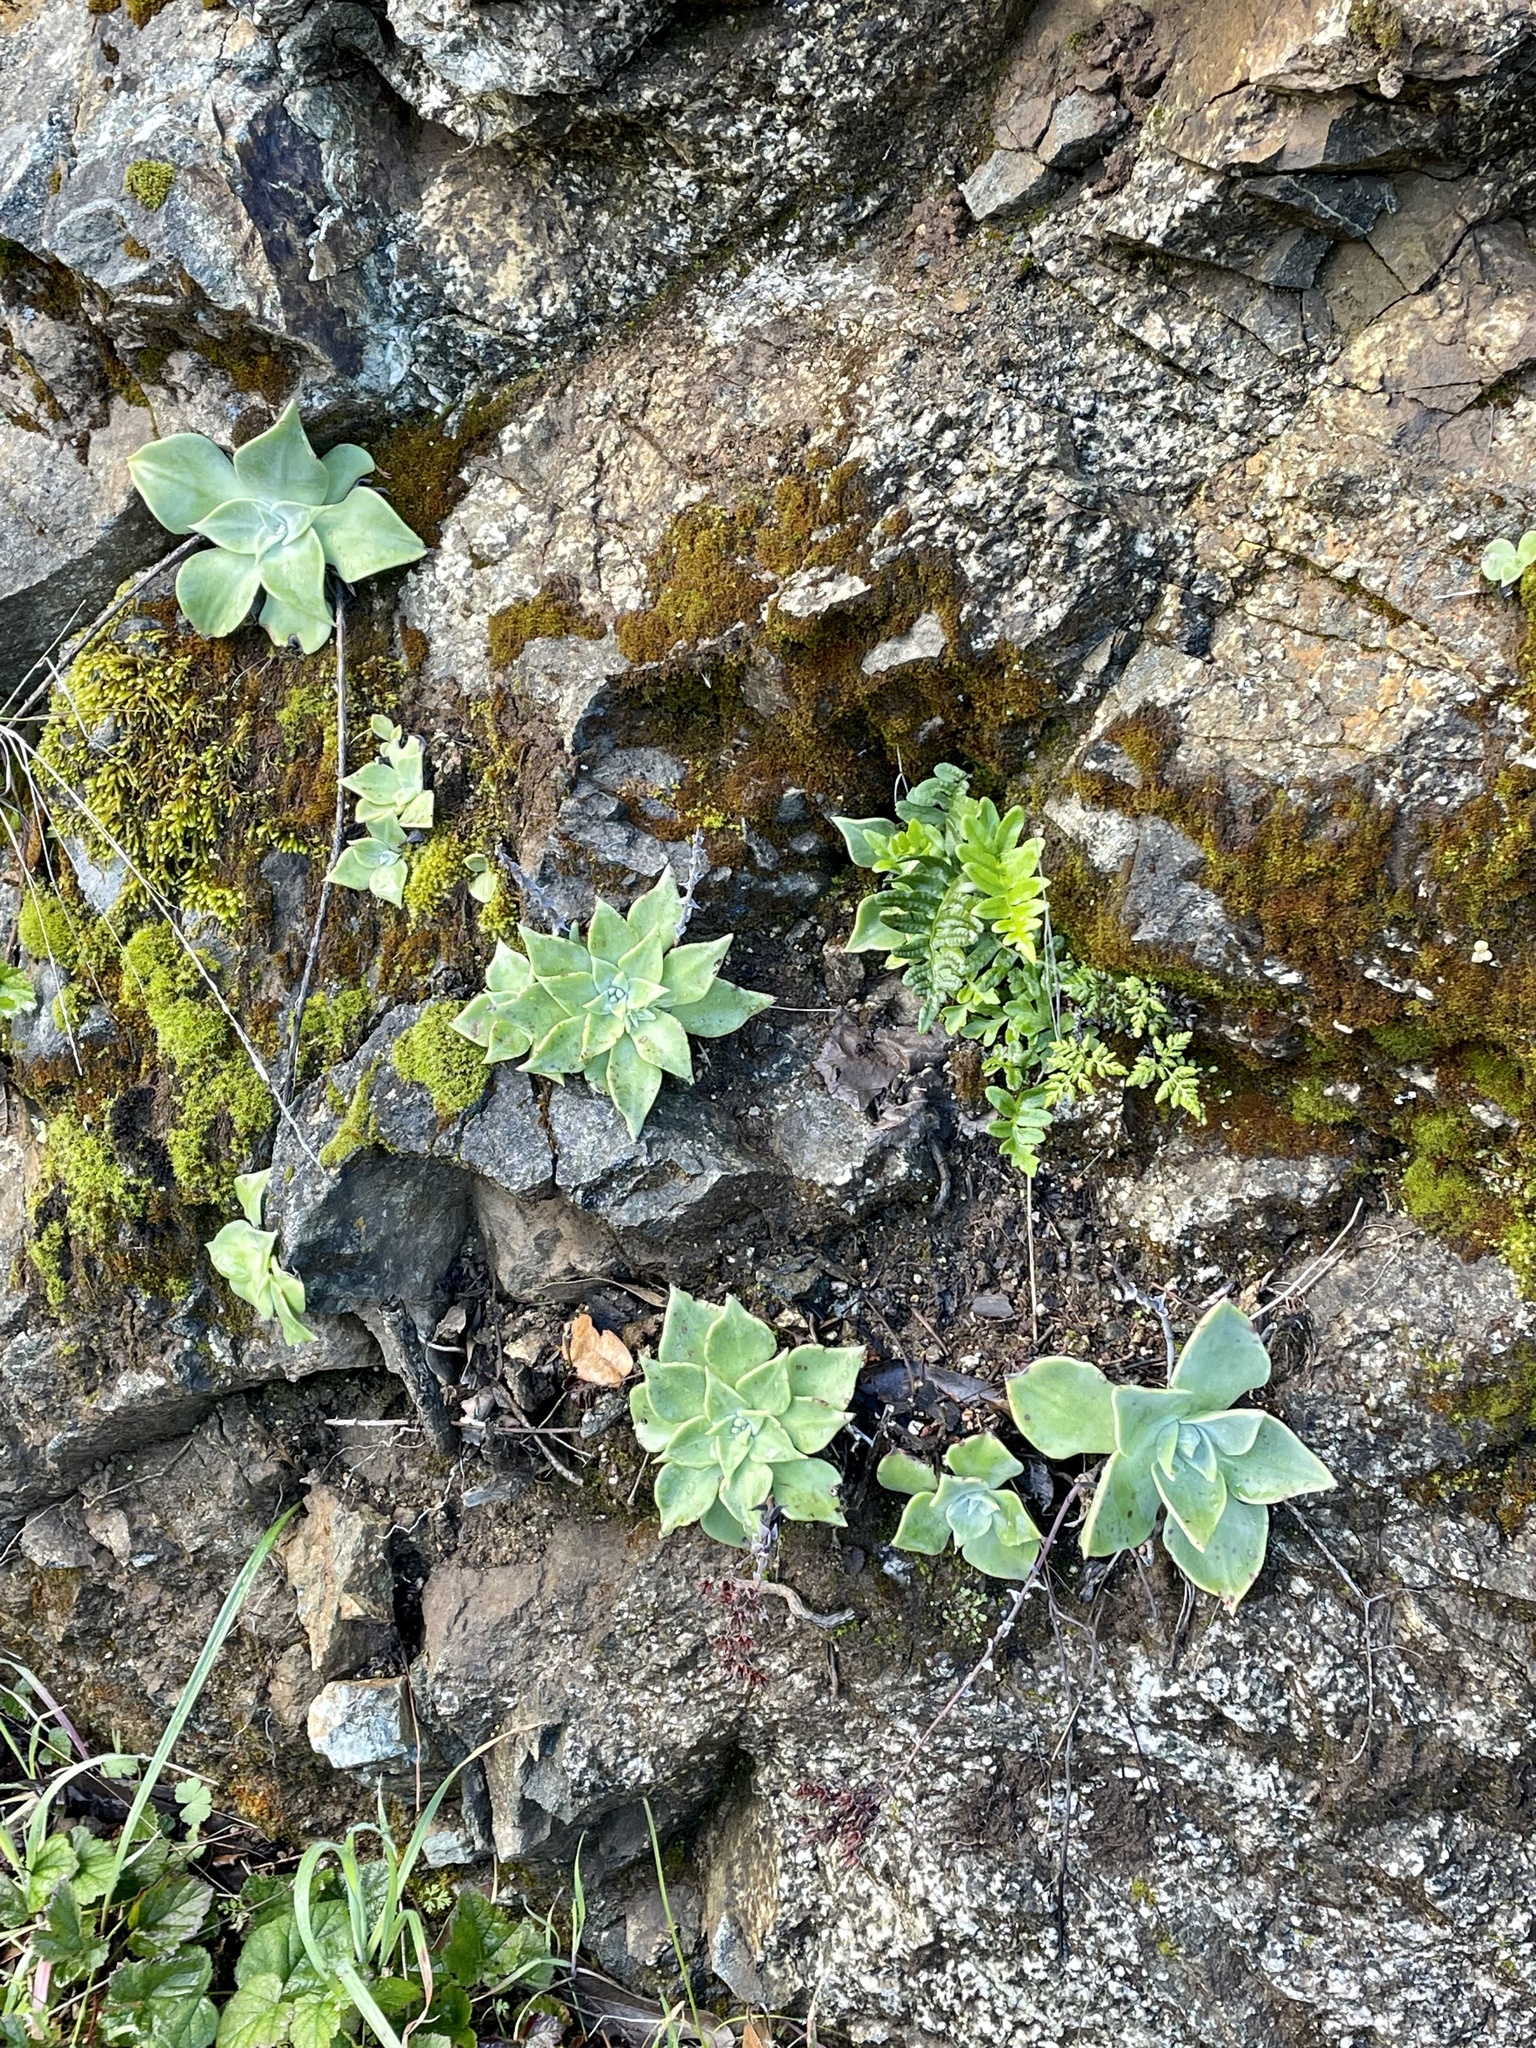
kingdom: Plantae
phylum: Tracheophyta
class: Magnoliopsida
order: Saxifragales
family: Crassulaceae
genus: Dudleya
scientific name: Dudleya cymosa
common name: Canyon dudleya
